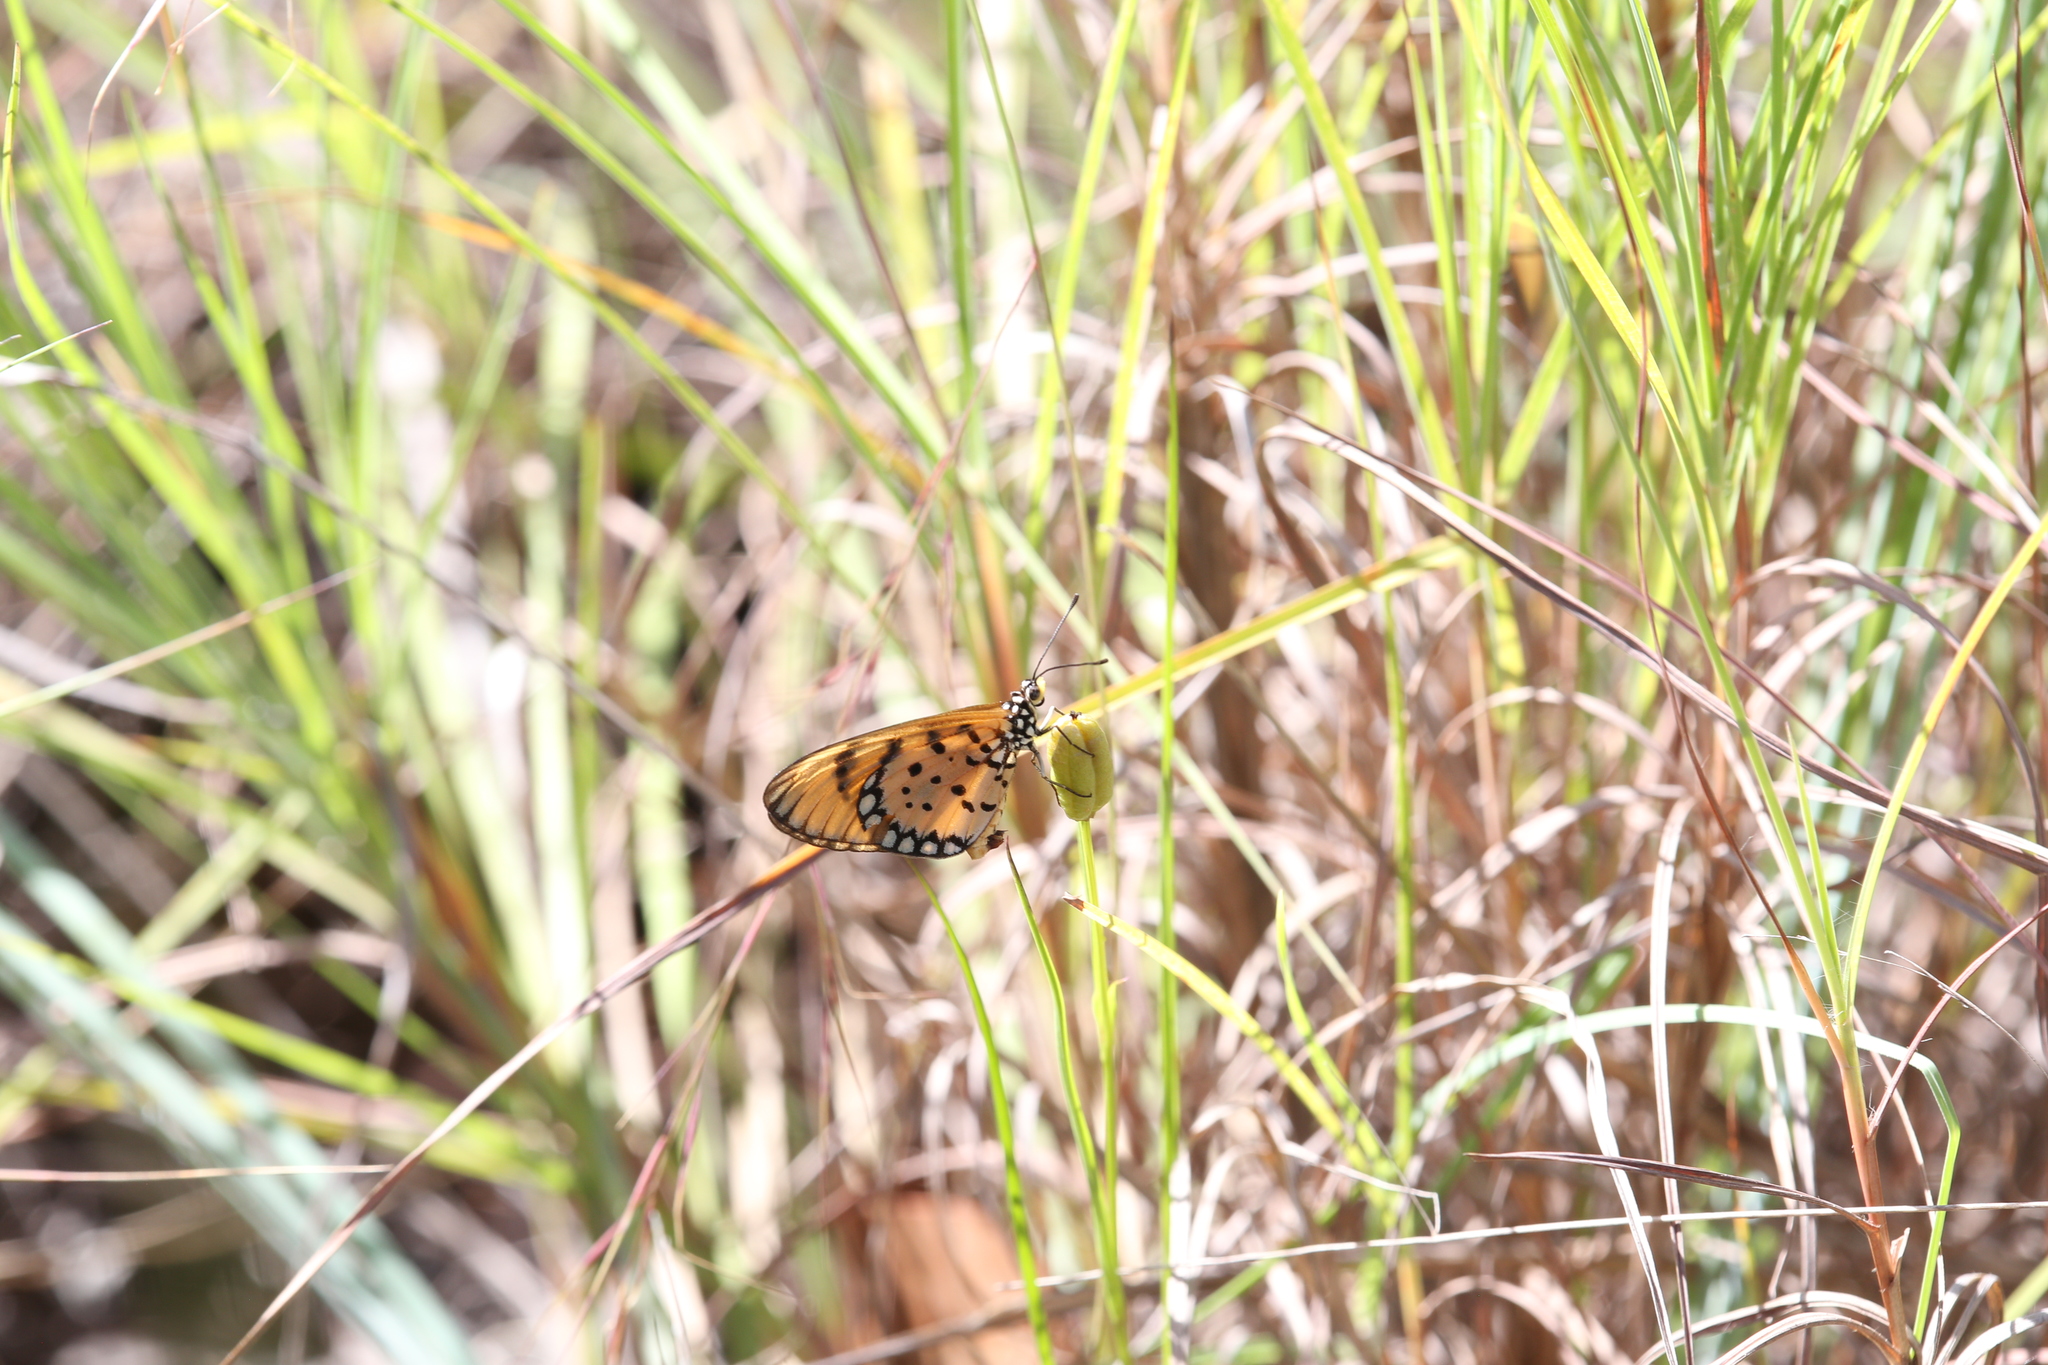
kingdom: Animalia
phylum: Arthropoda
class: Insecta
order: Lepidoptera
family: Nymphalidae
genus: Acraea
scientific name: Acraea terpsicore
